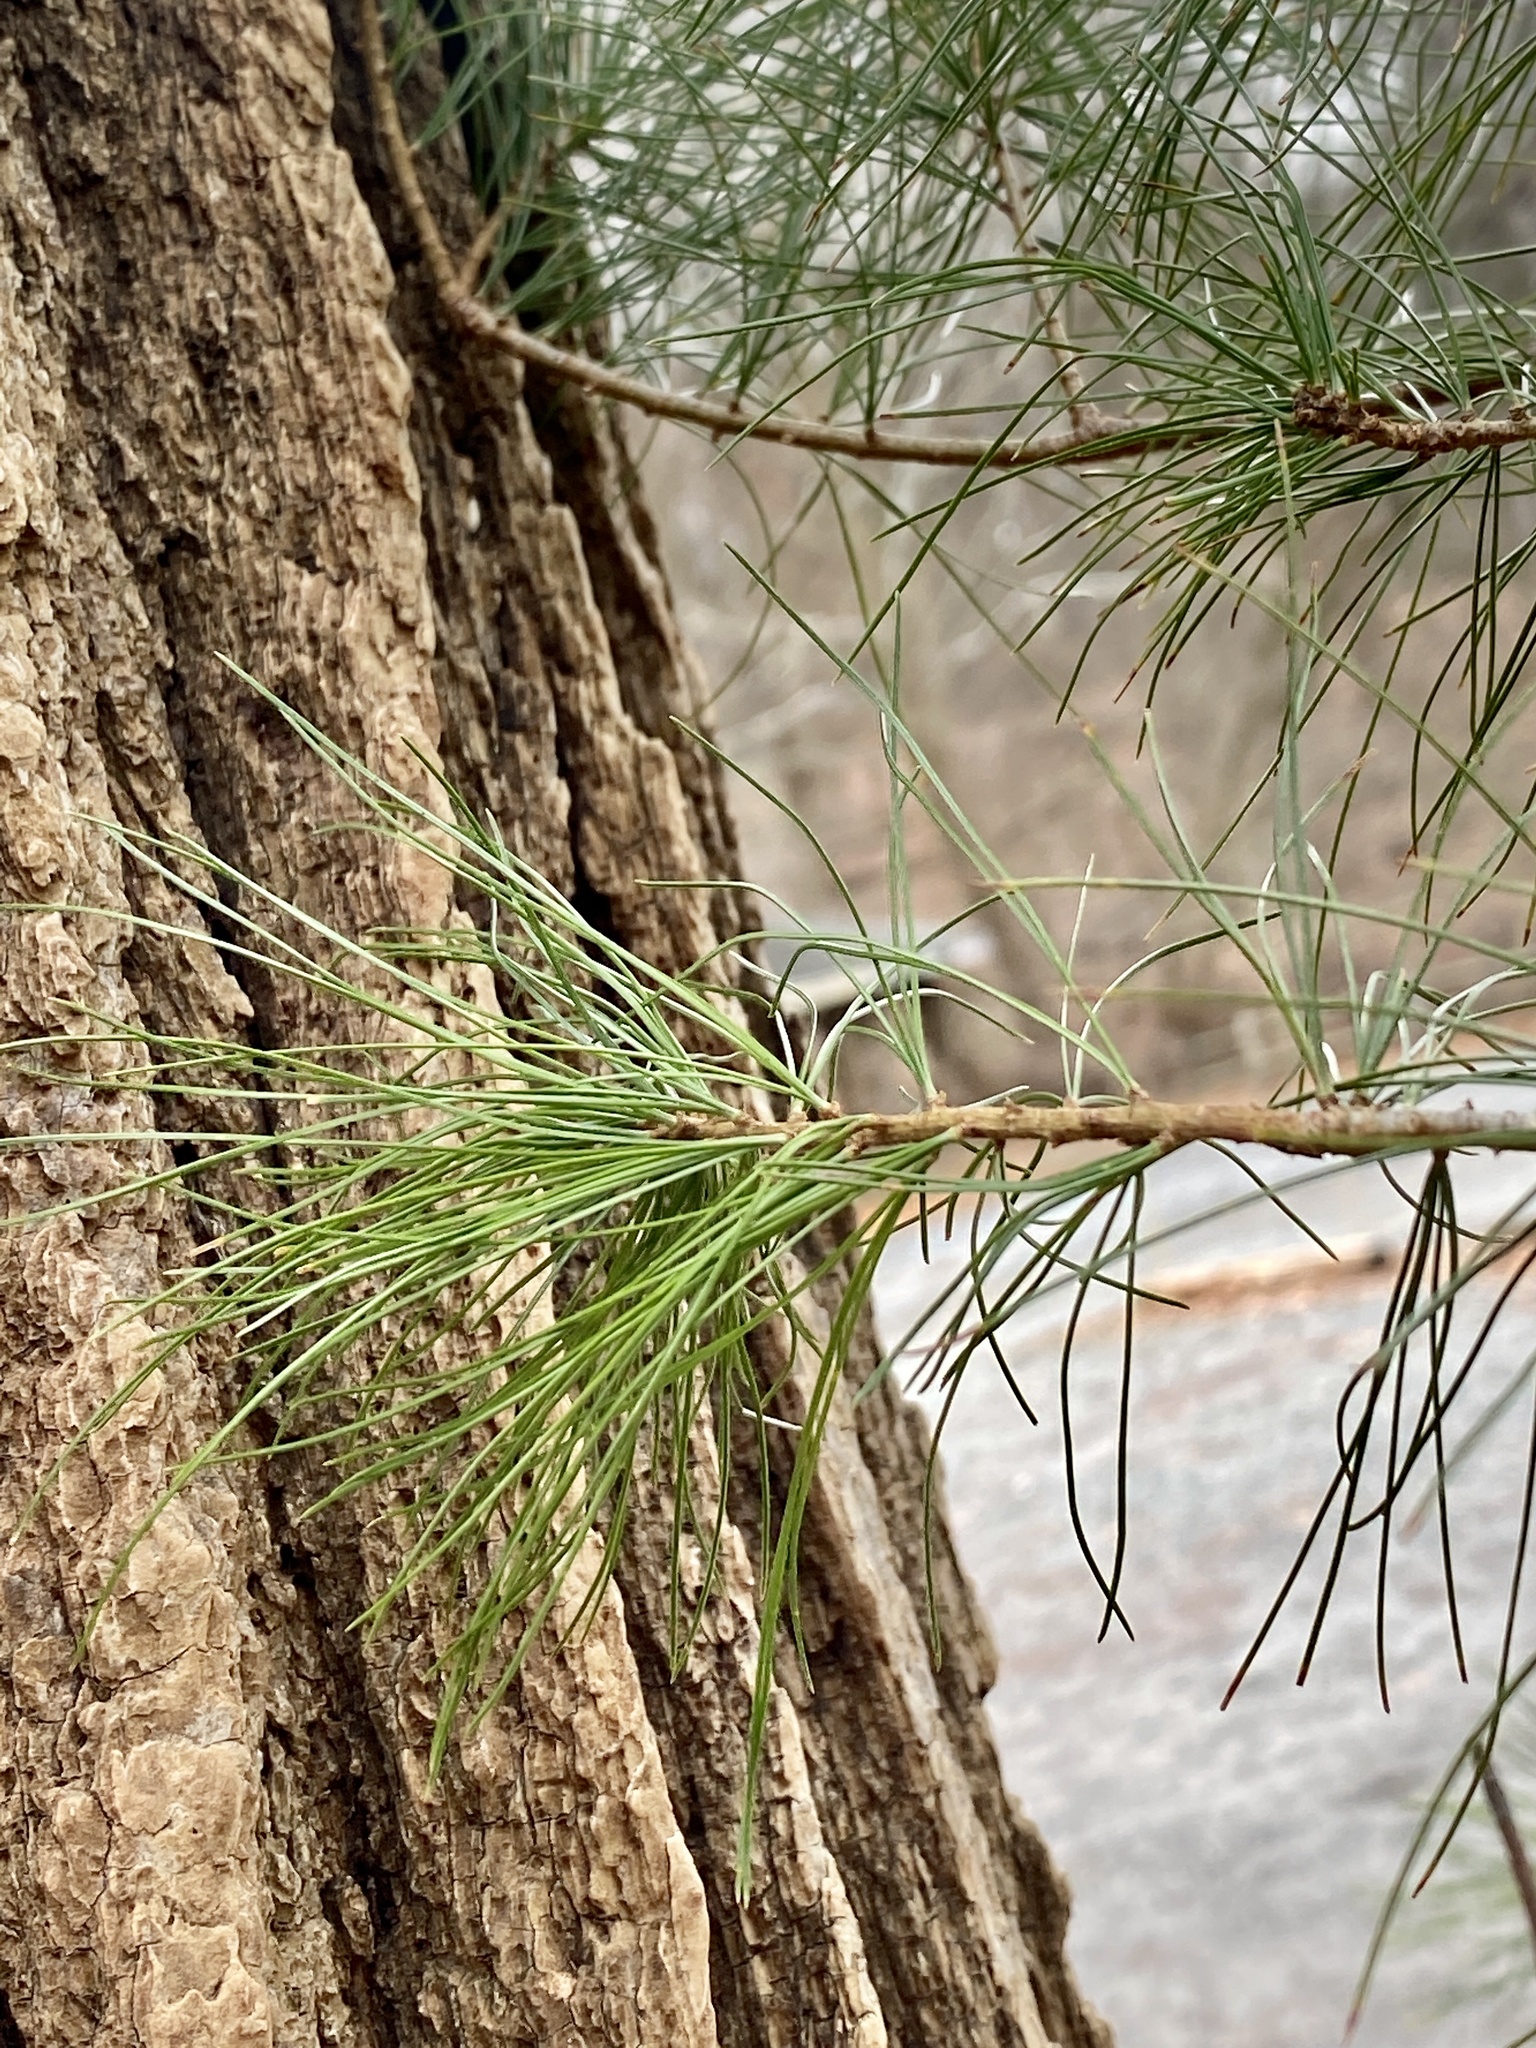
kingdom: Plantae
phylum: Tracheophyta
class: Pinopsida
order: Pinales
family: Pinaceae
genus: Pinus
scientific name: Pinus strobus
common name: Weymouth pine
